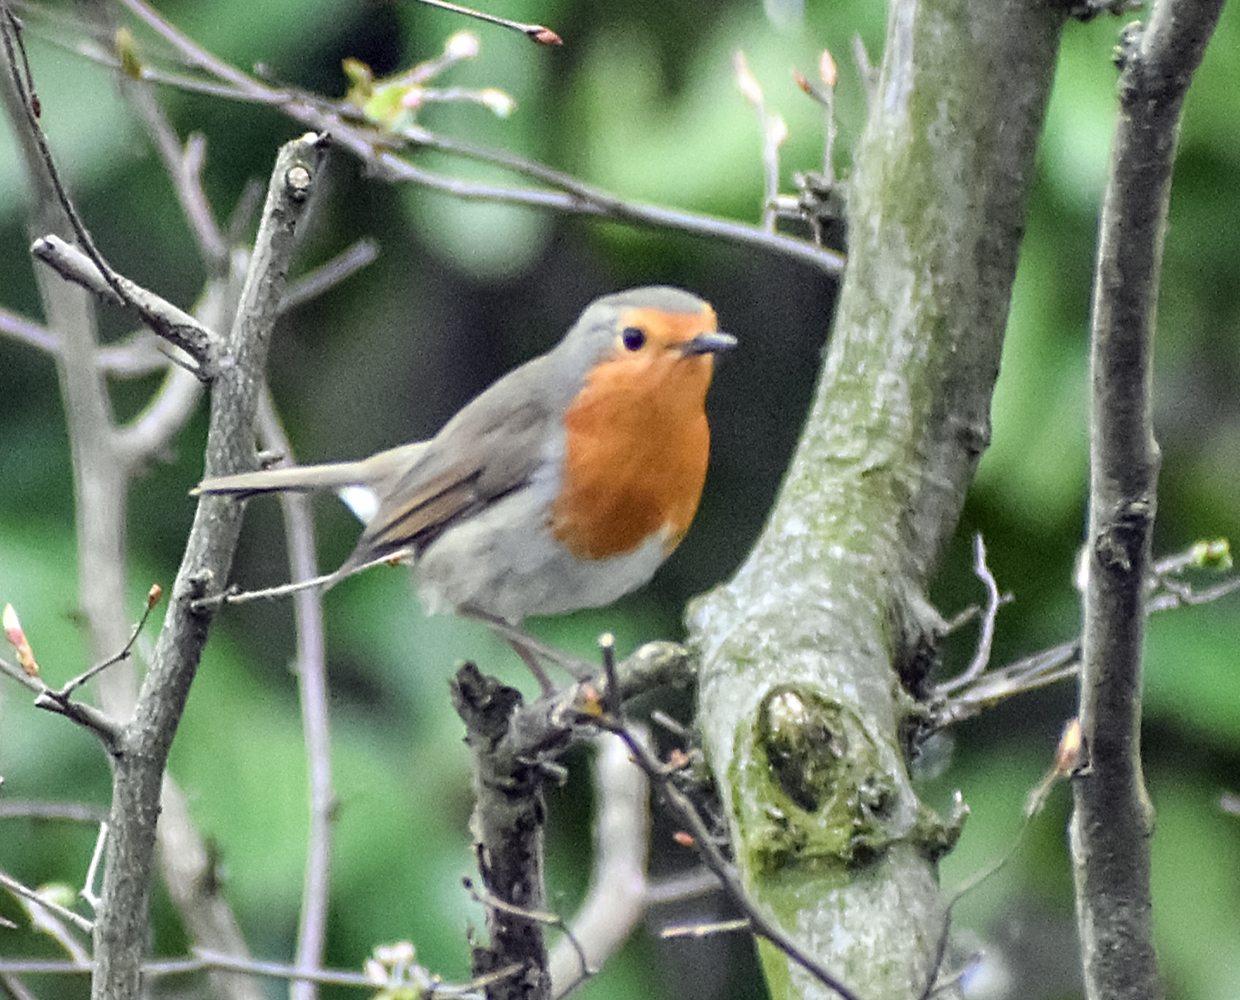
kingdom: Animalia
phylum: Chordata
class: Aves
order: Passeriformes
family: Muscicapidae
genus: Erithacus
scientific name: Erithacus rubecula
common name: European robin
